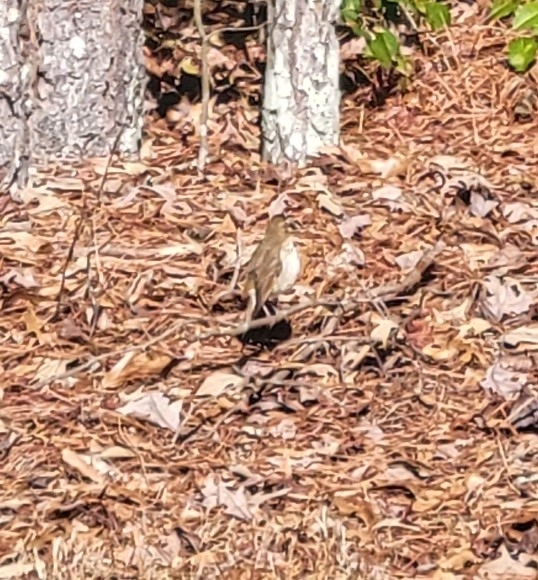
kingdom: Animalia
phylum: Chordata
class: Aves
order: Passeriformes
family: Turdidae
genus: Catharus
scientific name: Catharus guttatus
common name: Hermit thrush
